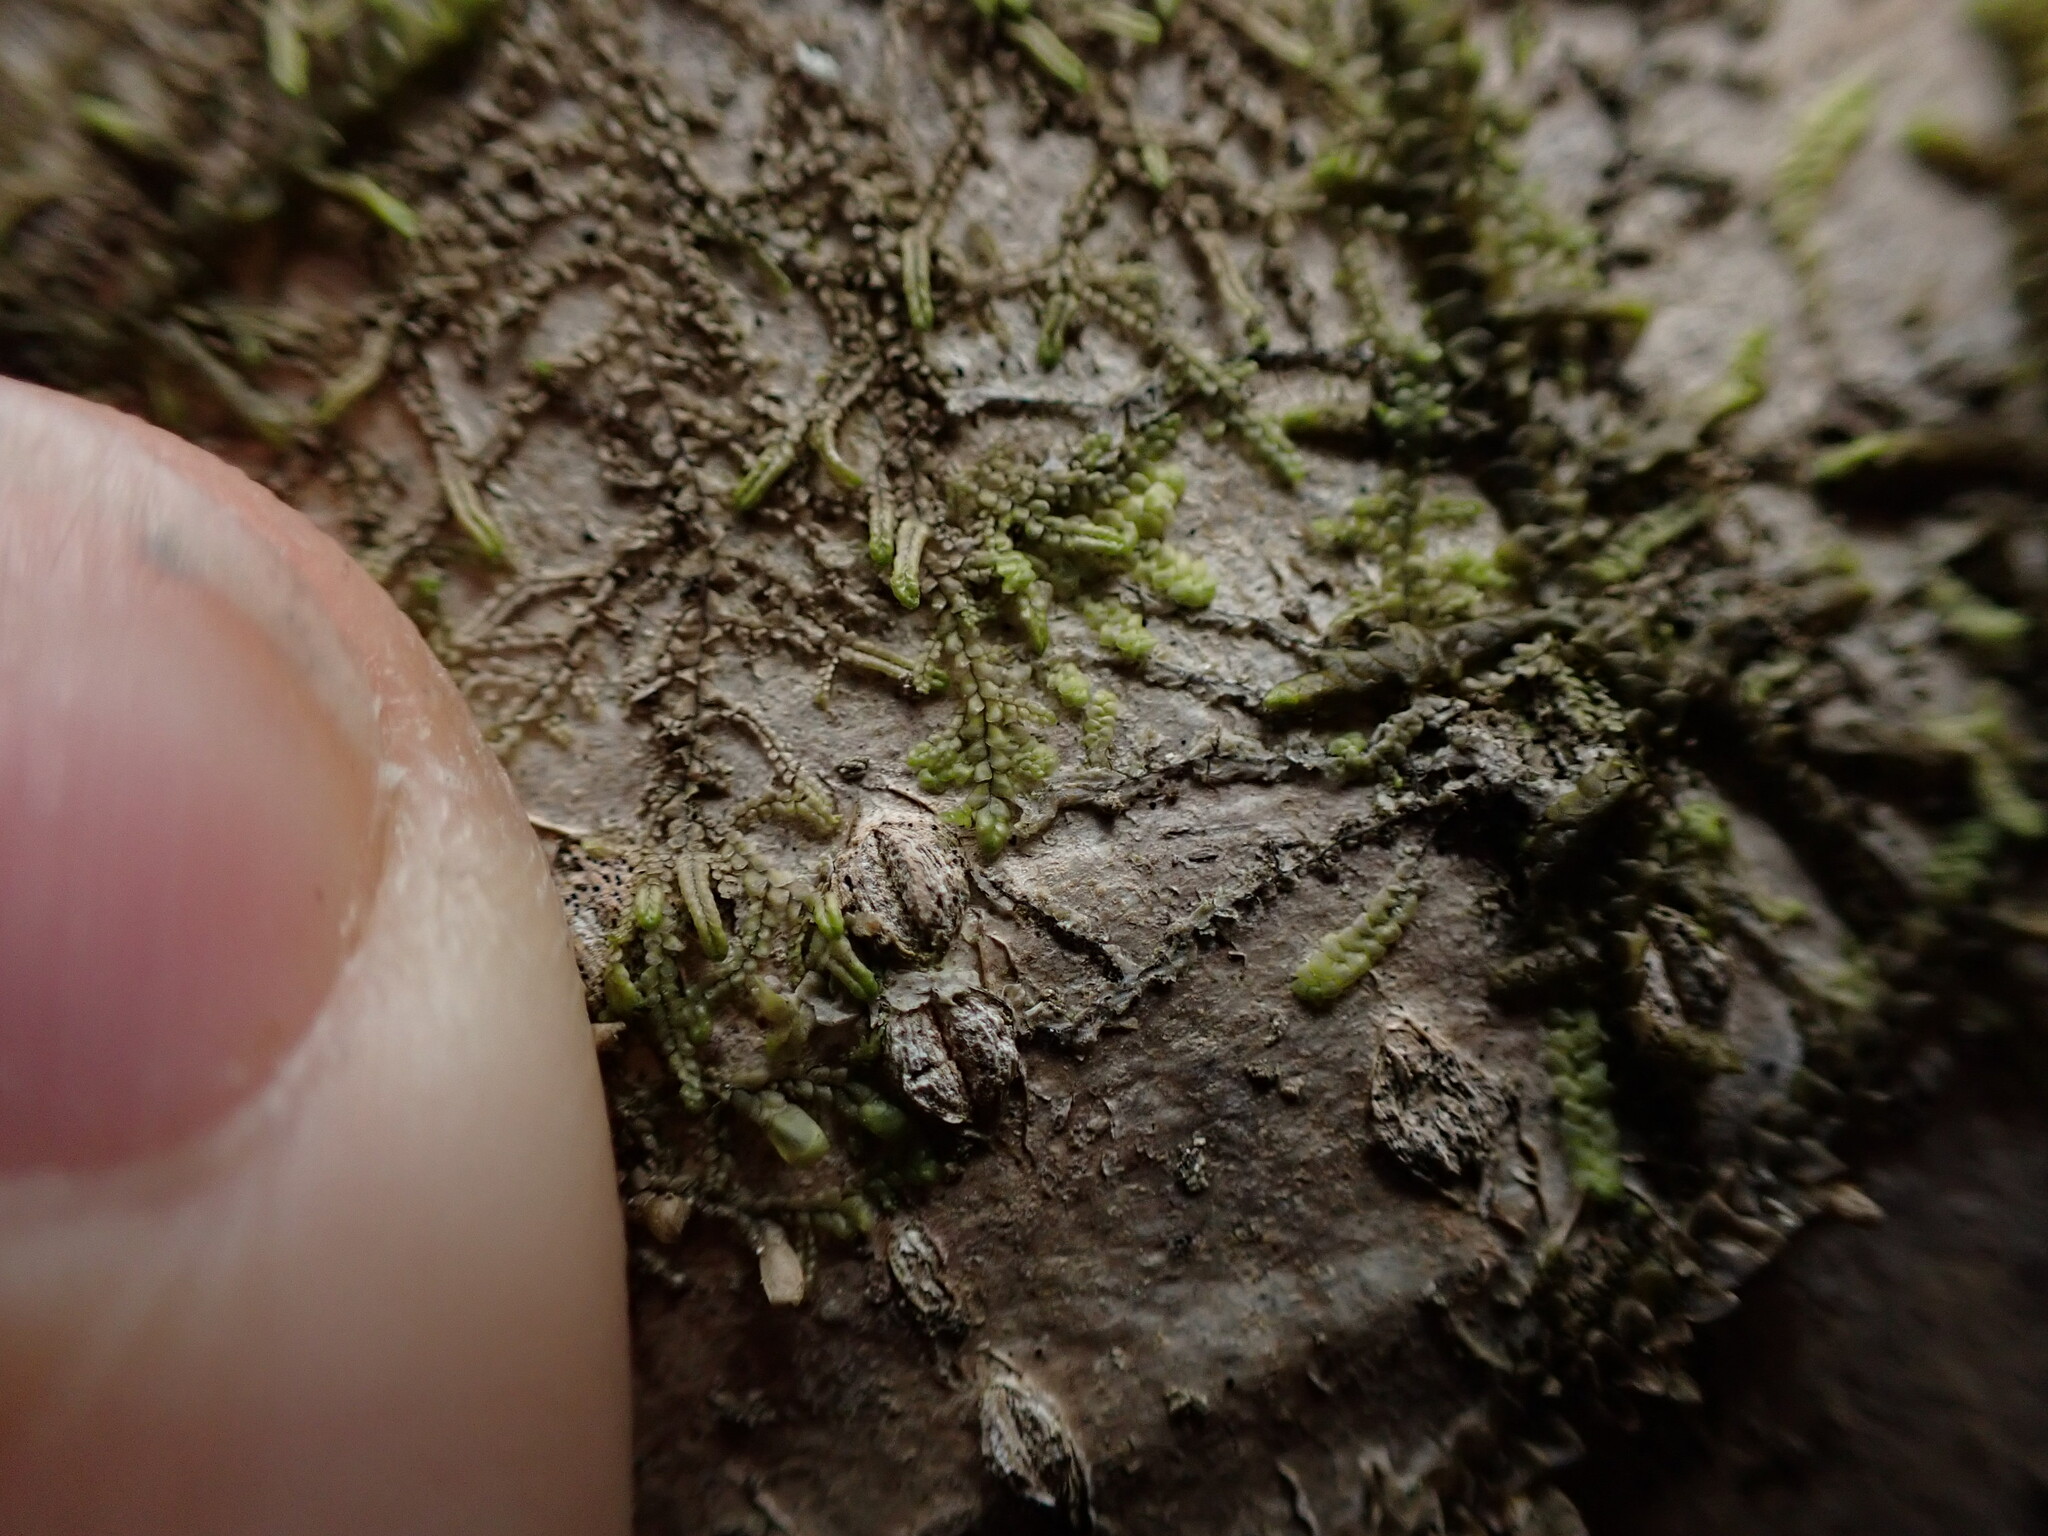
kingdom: Plantae
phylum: Marchantiophyta
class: Jungermanniopsida
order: Porellales
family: Radulaceae
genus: Radula
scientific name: Radula bolanderi
